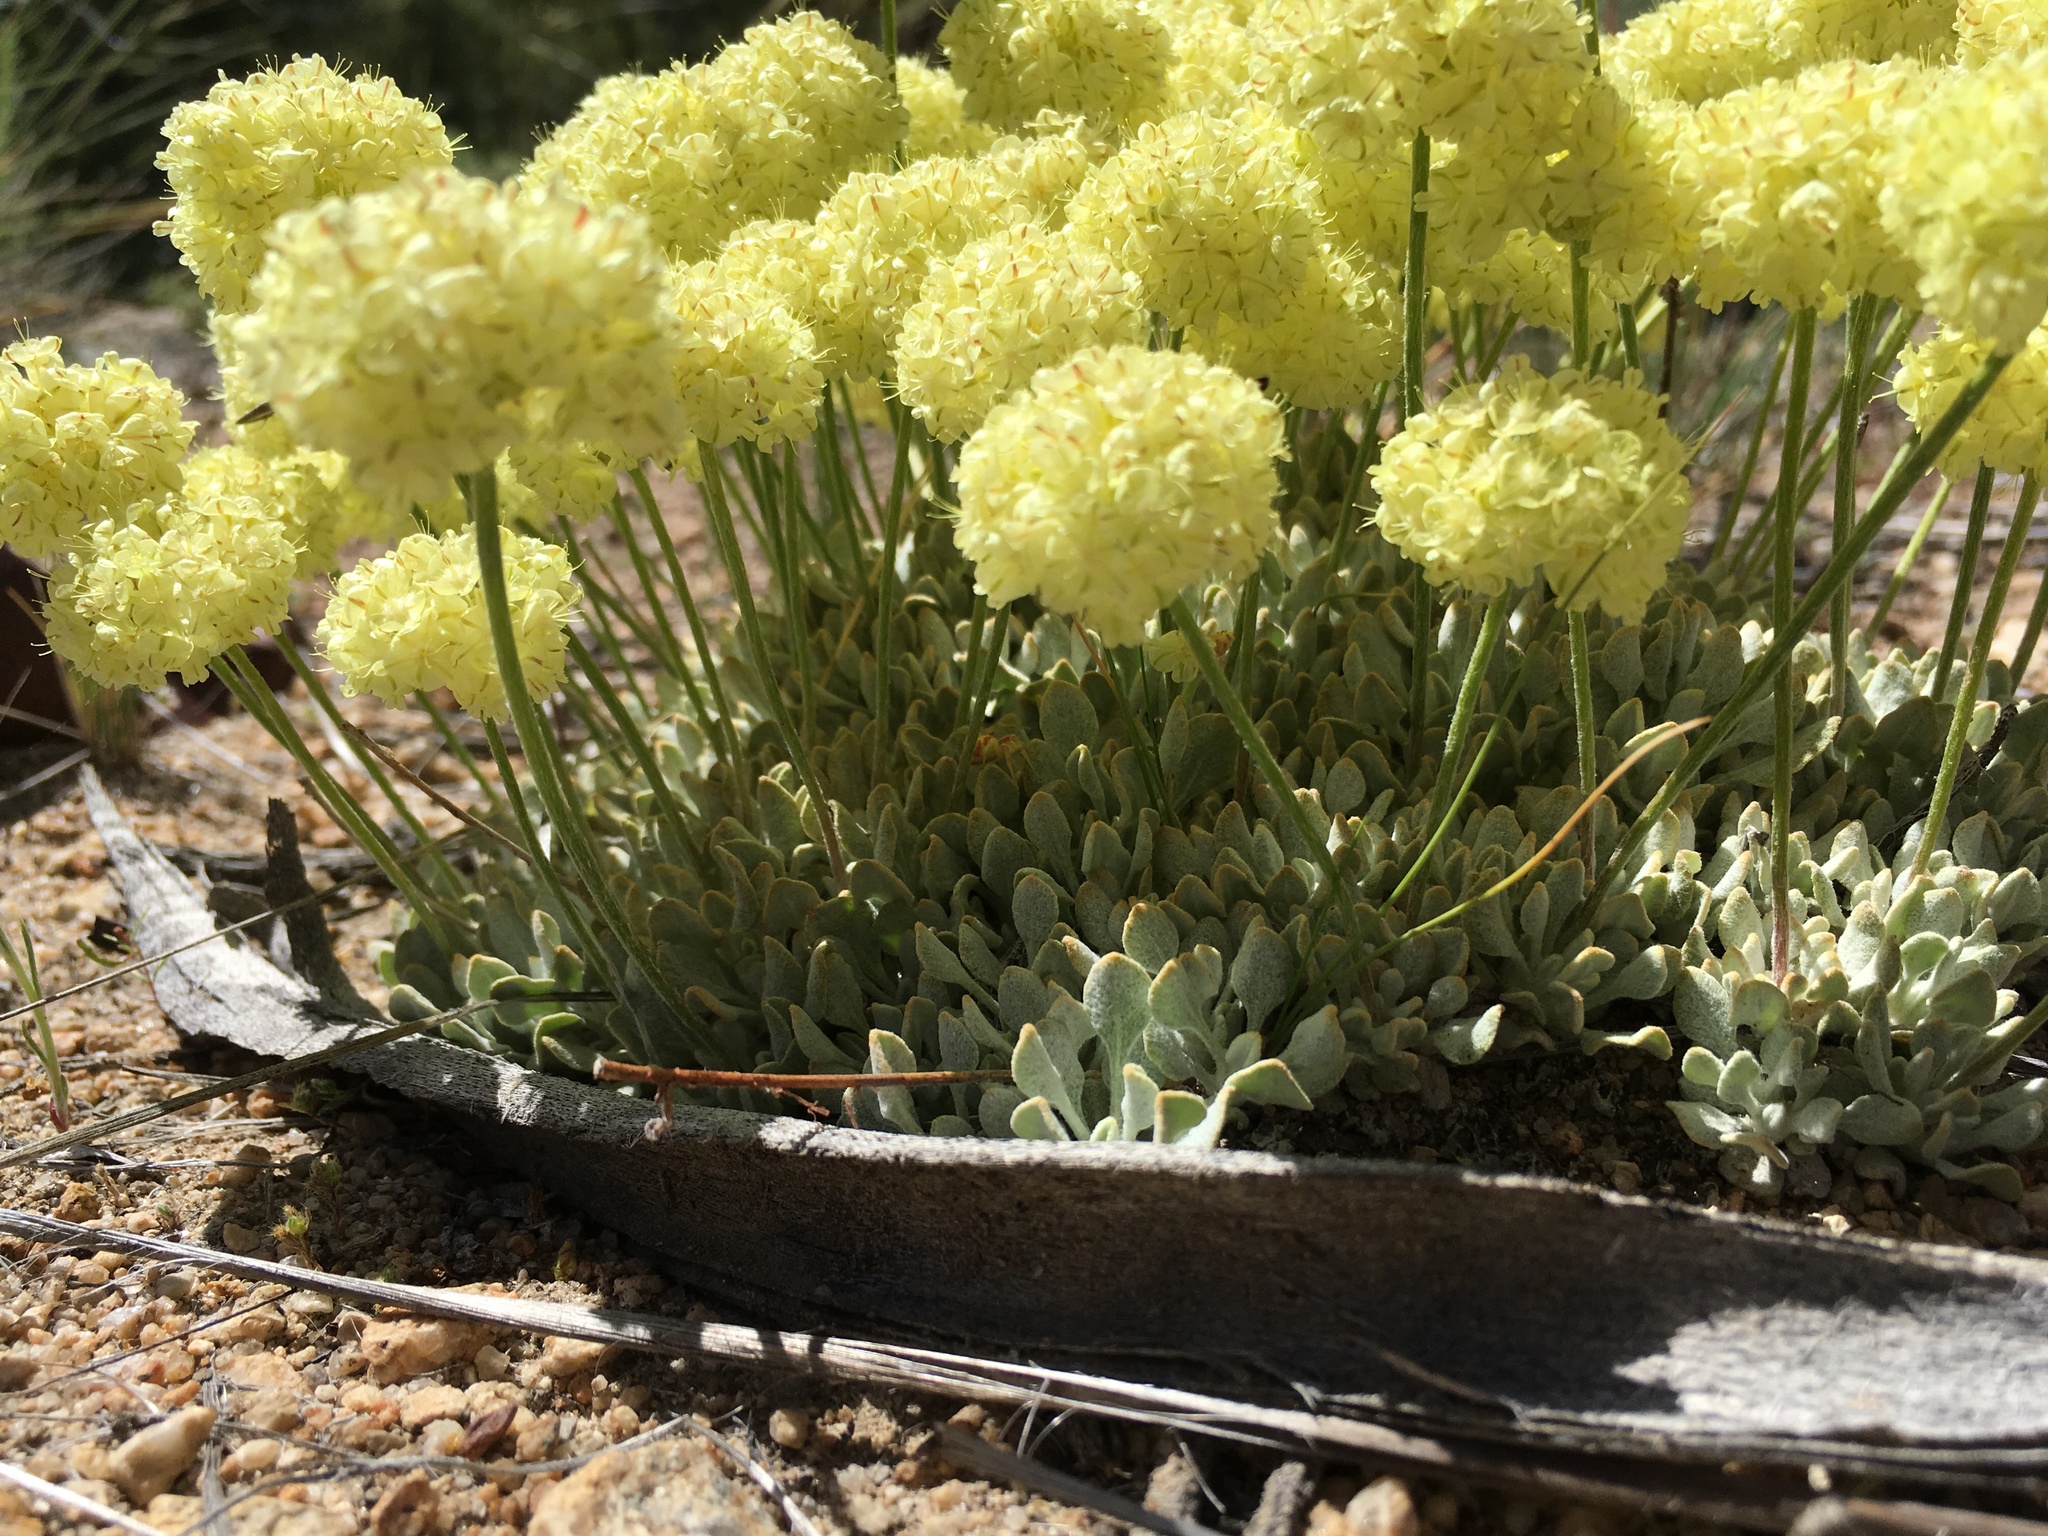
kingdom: Plantae
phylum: Tracheophyta
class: Magnoliopsida
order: Caryophyllales
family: Polygonaceae
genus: Eriogonum
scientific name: Eriogonum ovalifolium
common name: Cushion buckwheat
